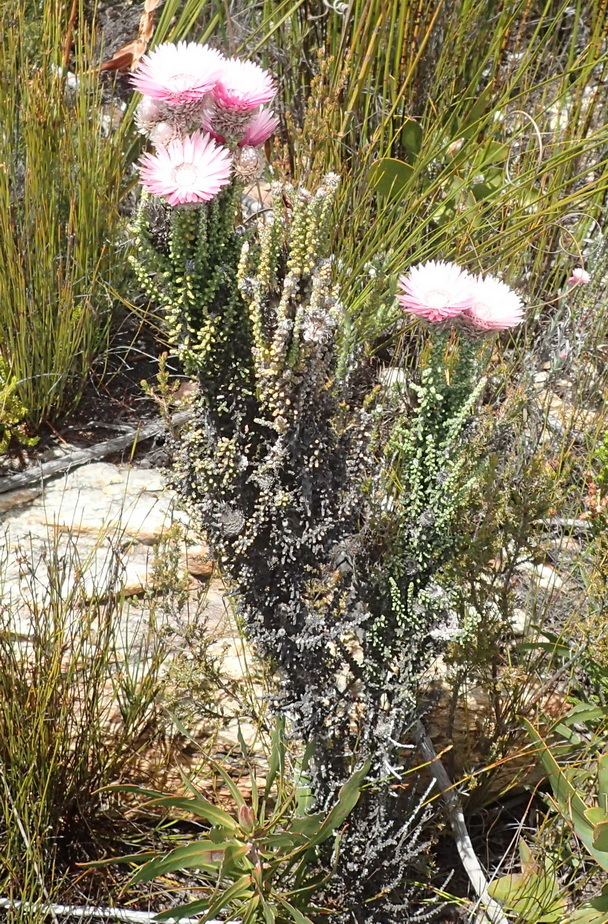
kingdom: Plantae
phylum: Tracheophyta
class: Magnoliopsida
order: Asterales
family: Asteraceae
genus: Phaenocoma
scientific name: Phaenocoma prolifera
